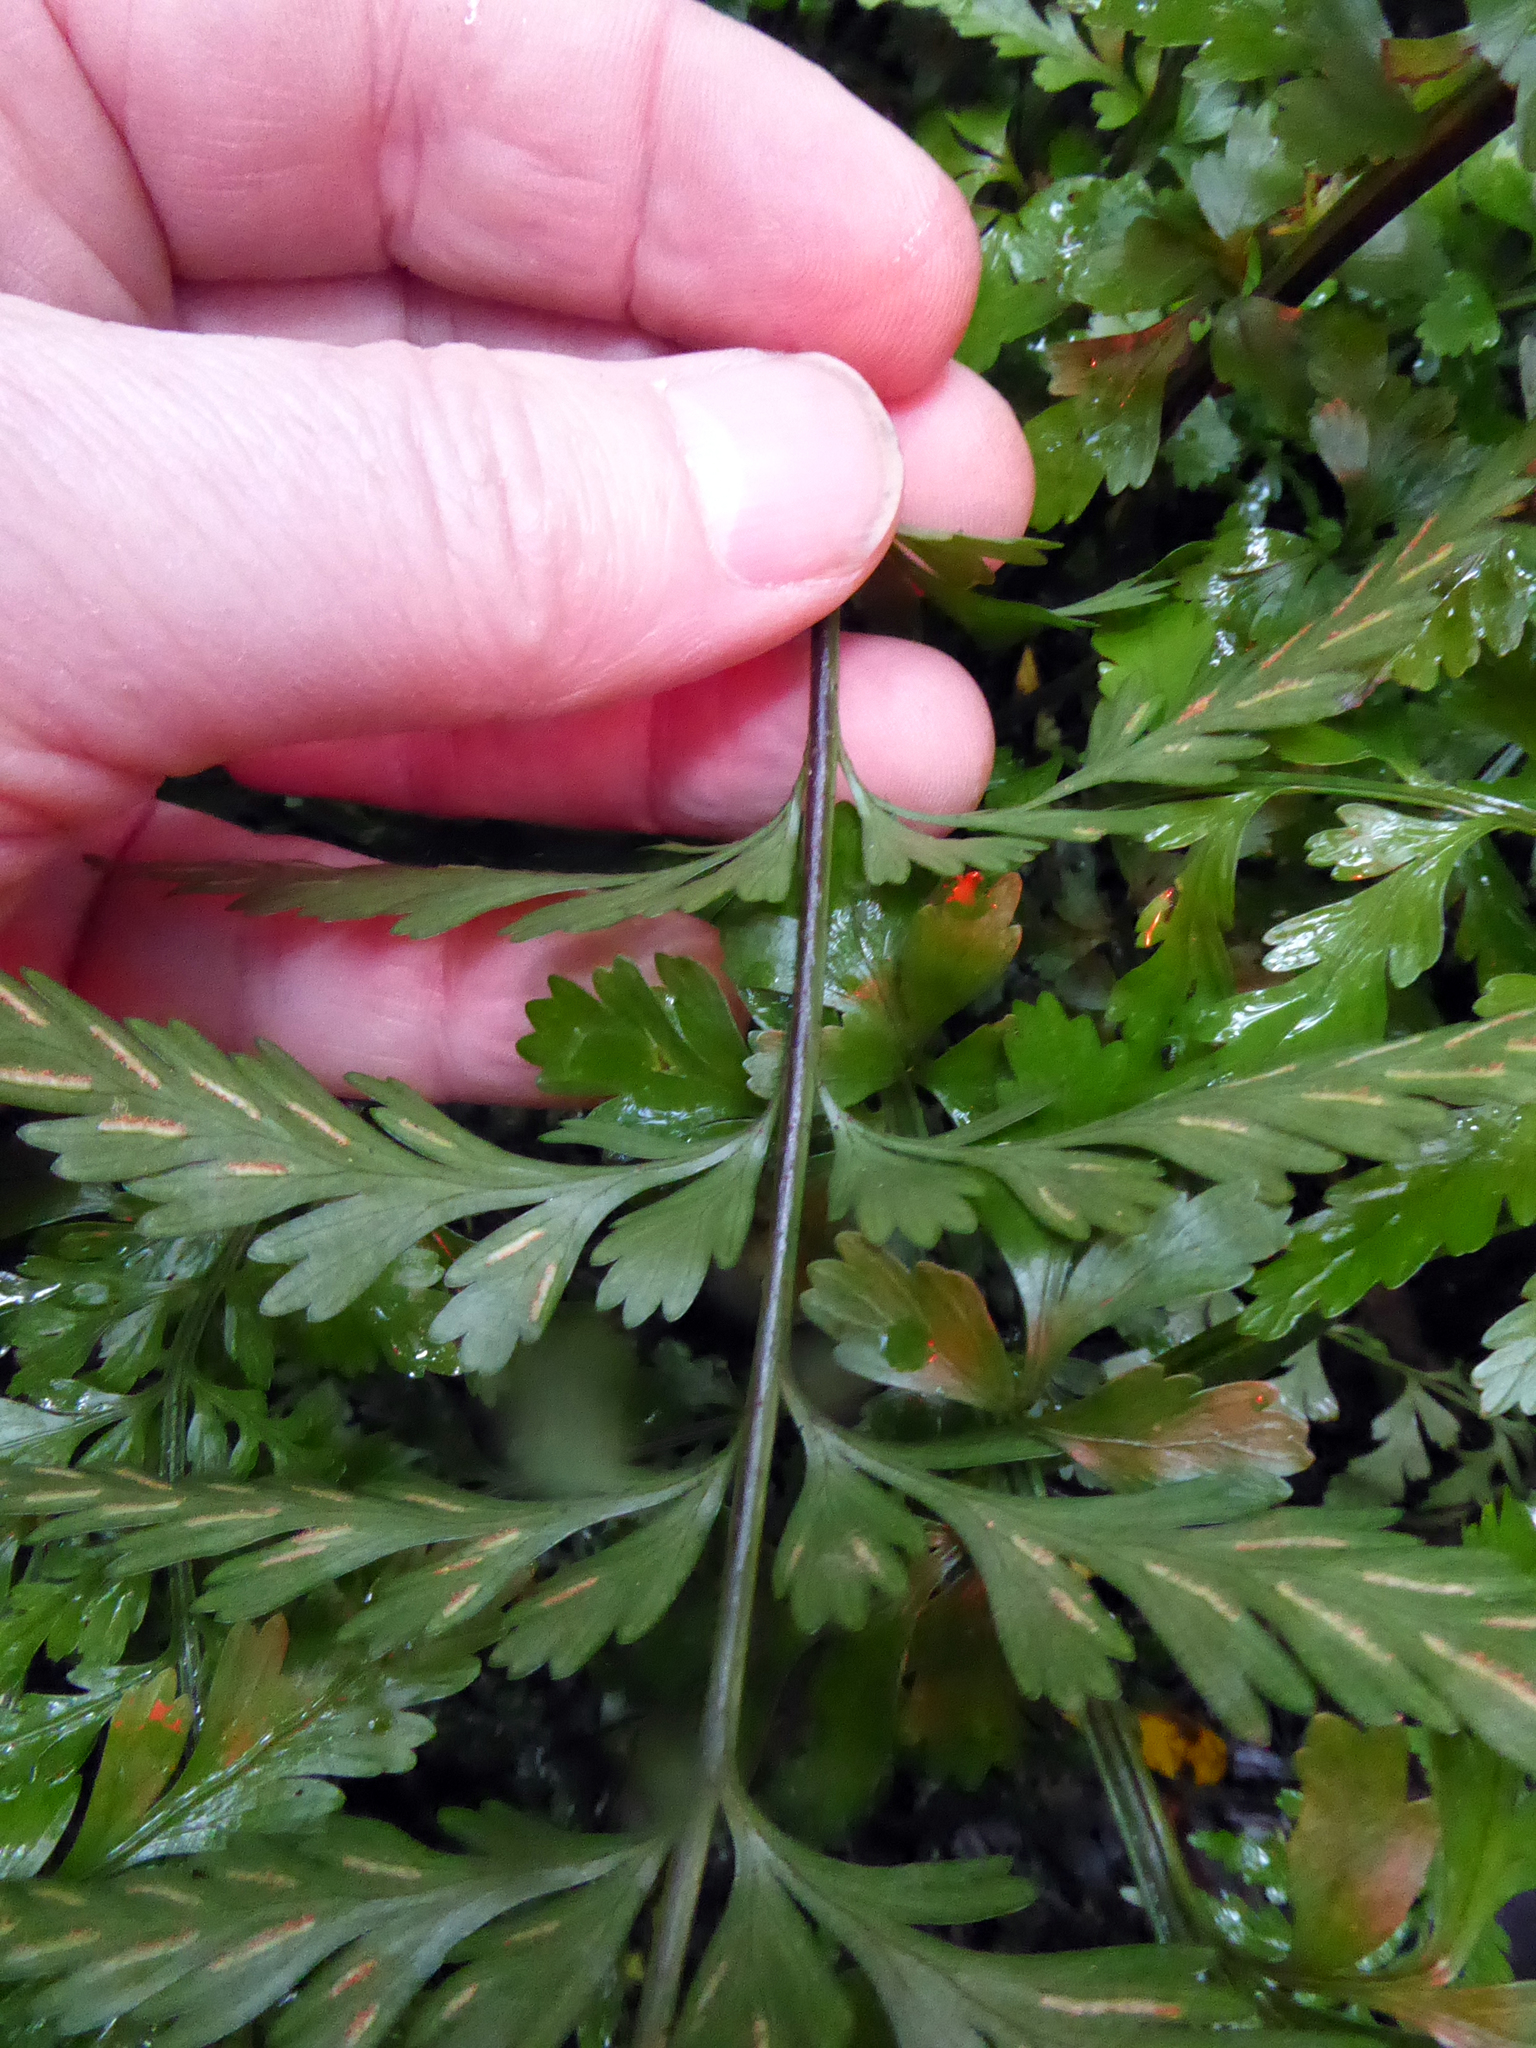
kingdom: Plantae
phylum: Tracheophyta
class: Polypodiopsida
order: Polypodiales
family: Aspleniaceae
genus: Asplenium
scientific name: Asplenium lamprophyllum
